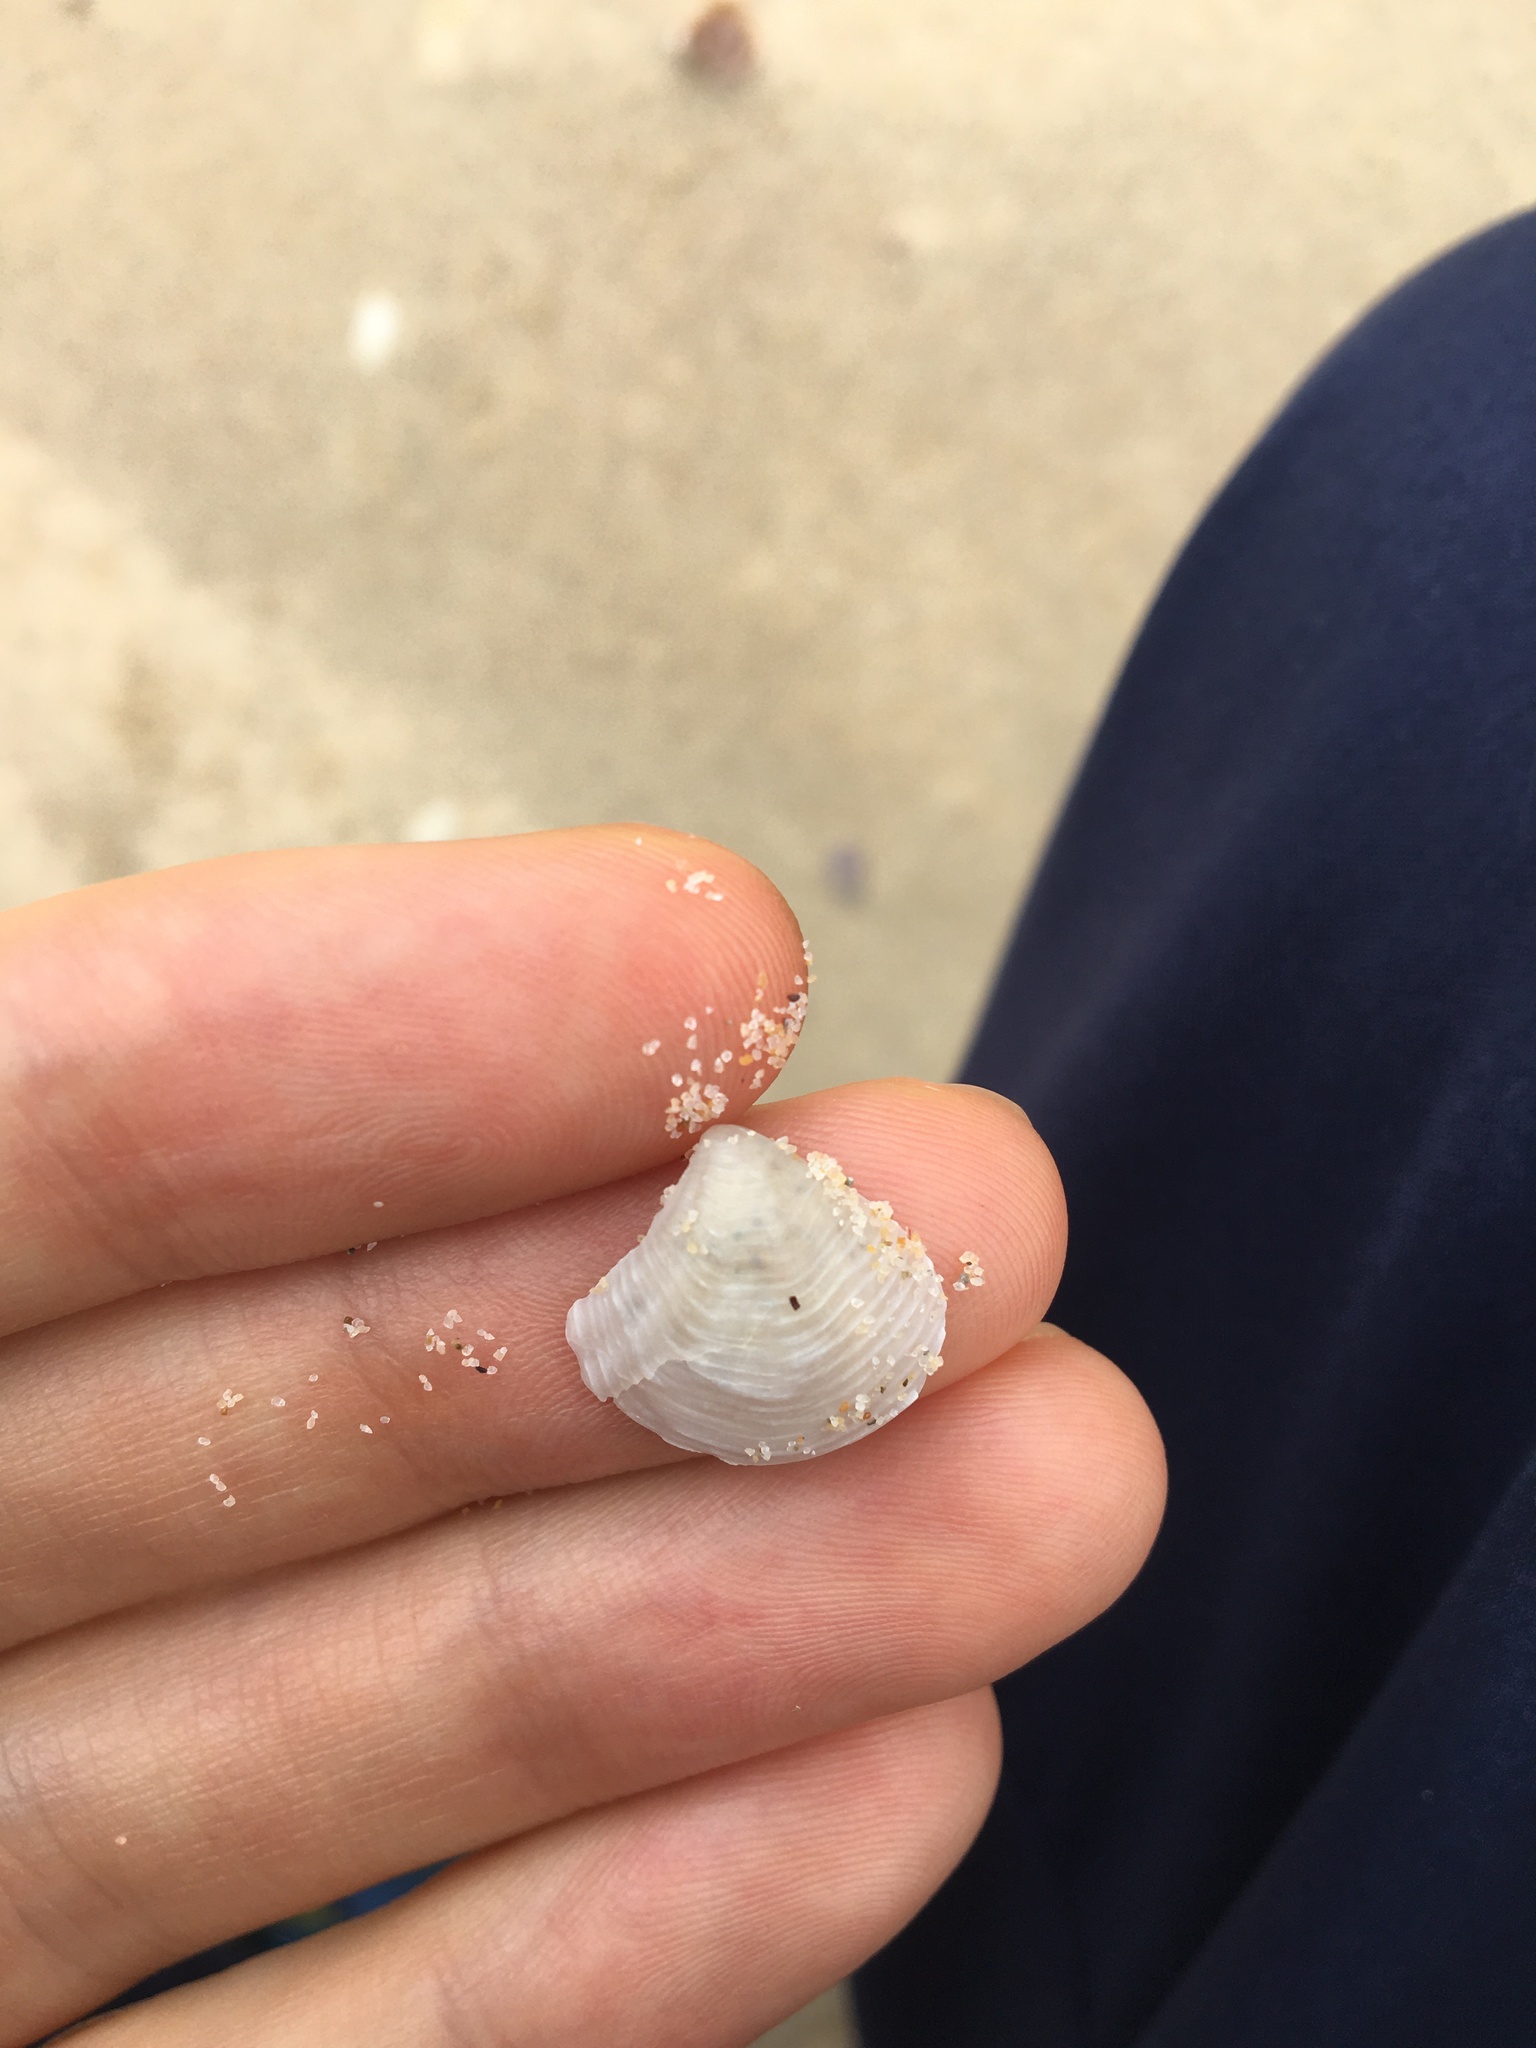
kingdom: Animalia
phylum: Mollusca
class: Bivalvia
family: Myochamidae
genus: Myadora
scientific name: Myadora brevis
